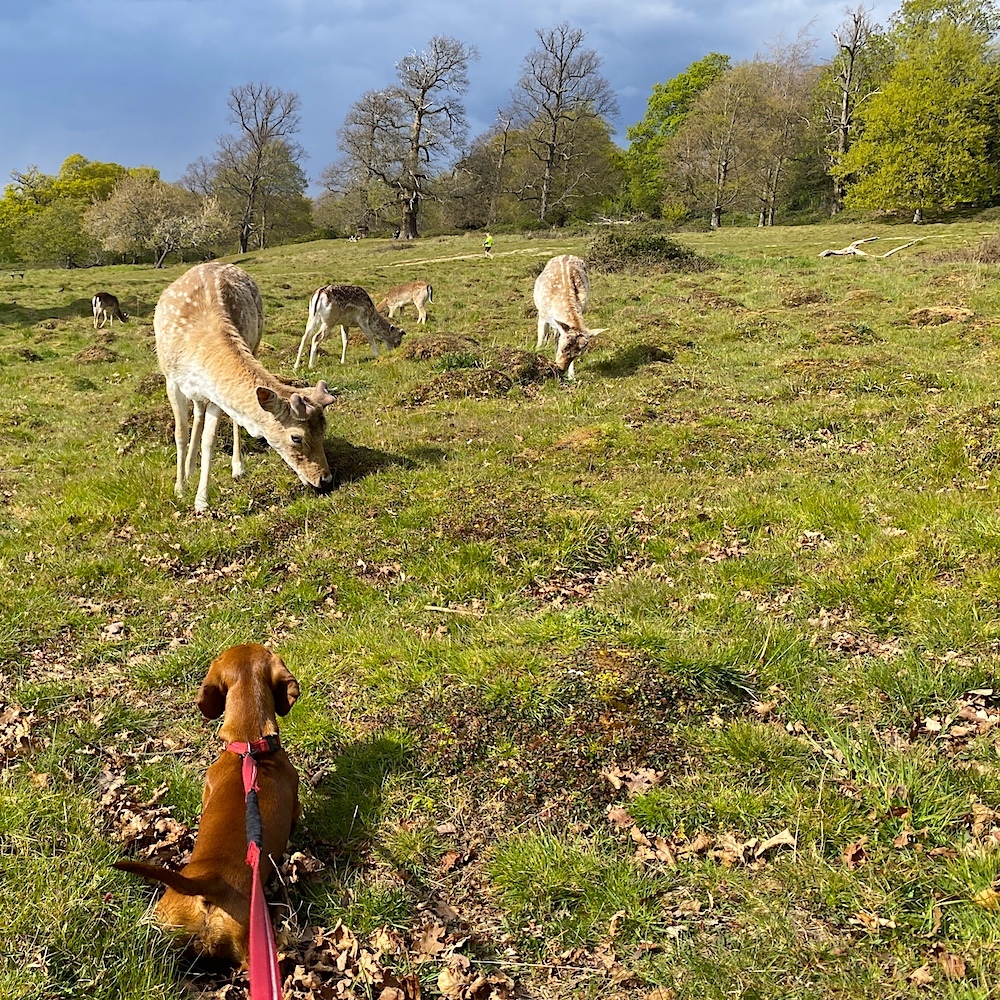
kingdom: Animalia
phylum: Chordata
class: Mammalia
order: Artiodactyla
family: Cervidae
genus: Dama
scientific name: Dama dama
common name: Fallow deer
